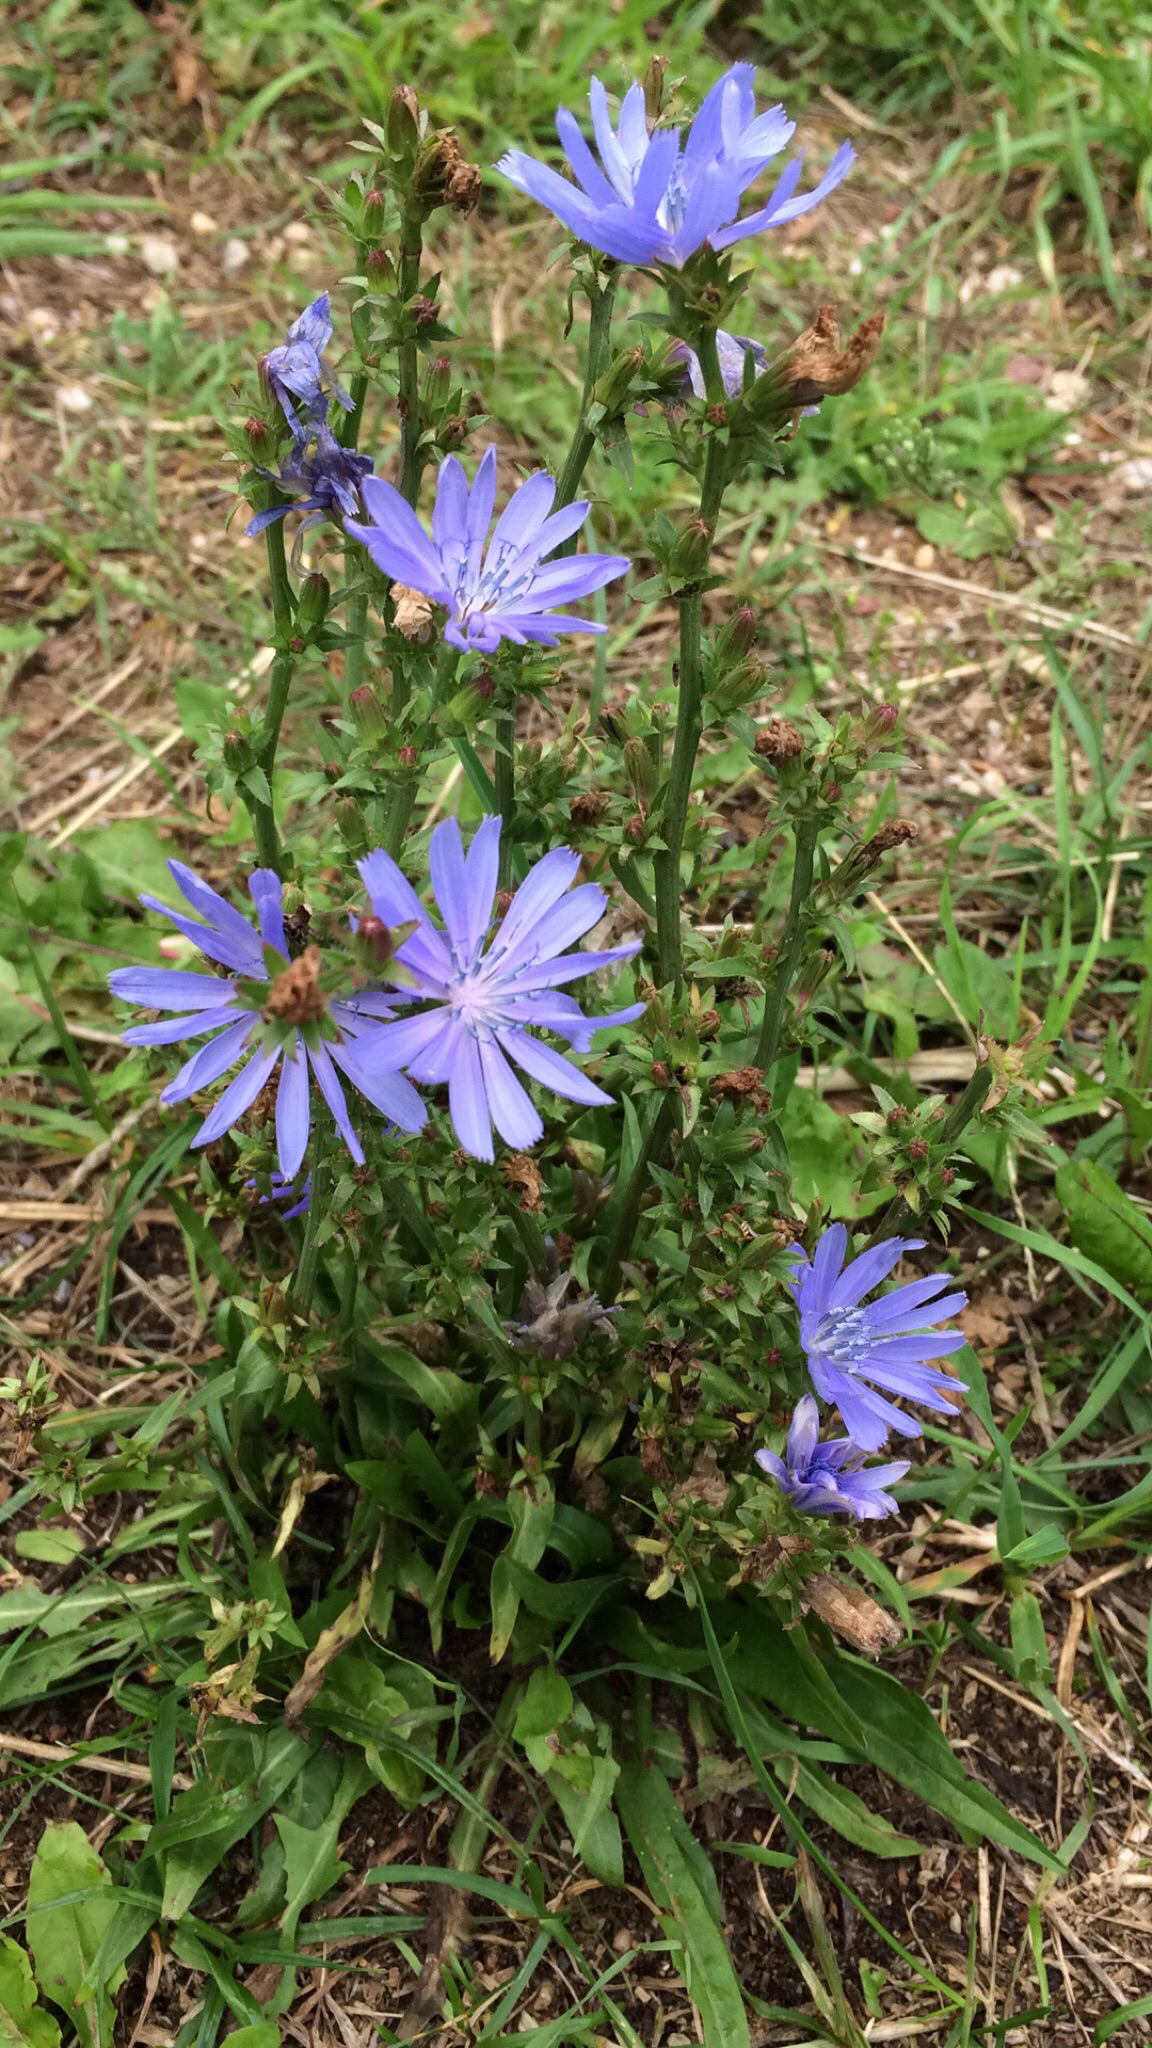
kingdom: Plantae
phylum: Tracheophyta
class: Magnoliopsida
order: Asterales
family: Asteraceae
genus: Cichorium
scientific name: Cichorium intybus
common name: Chicory
